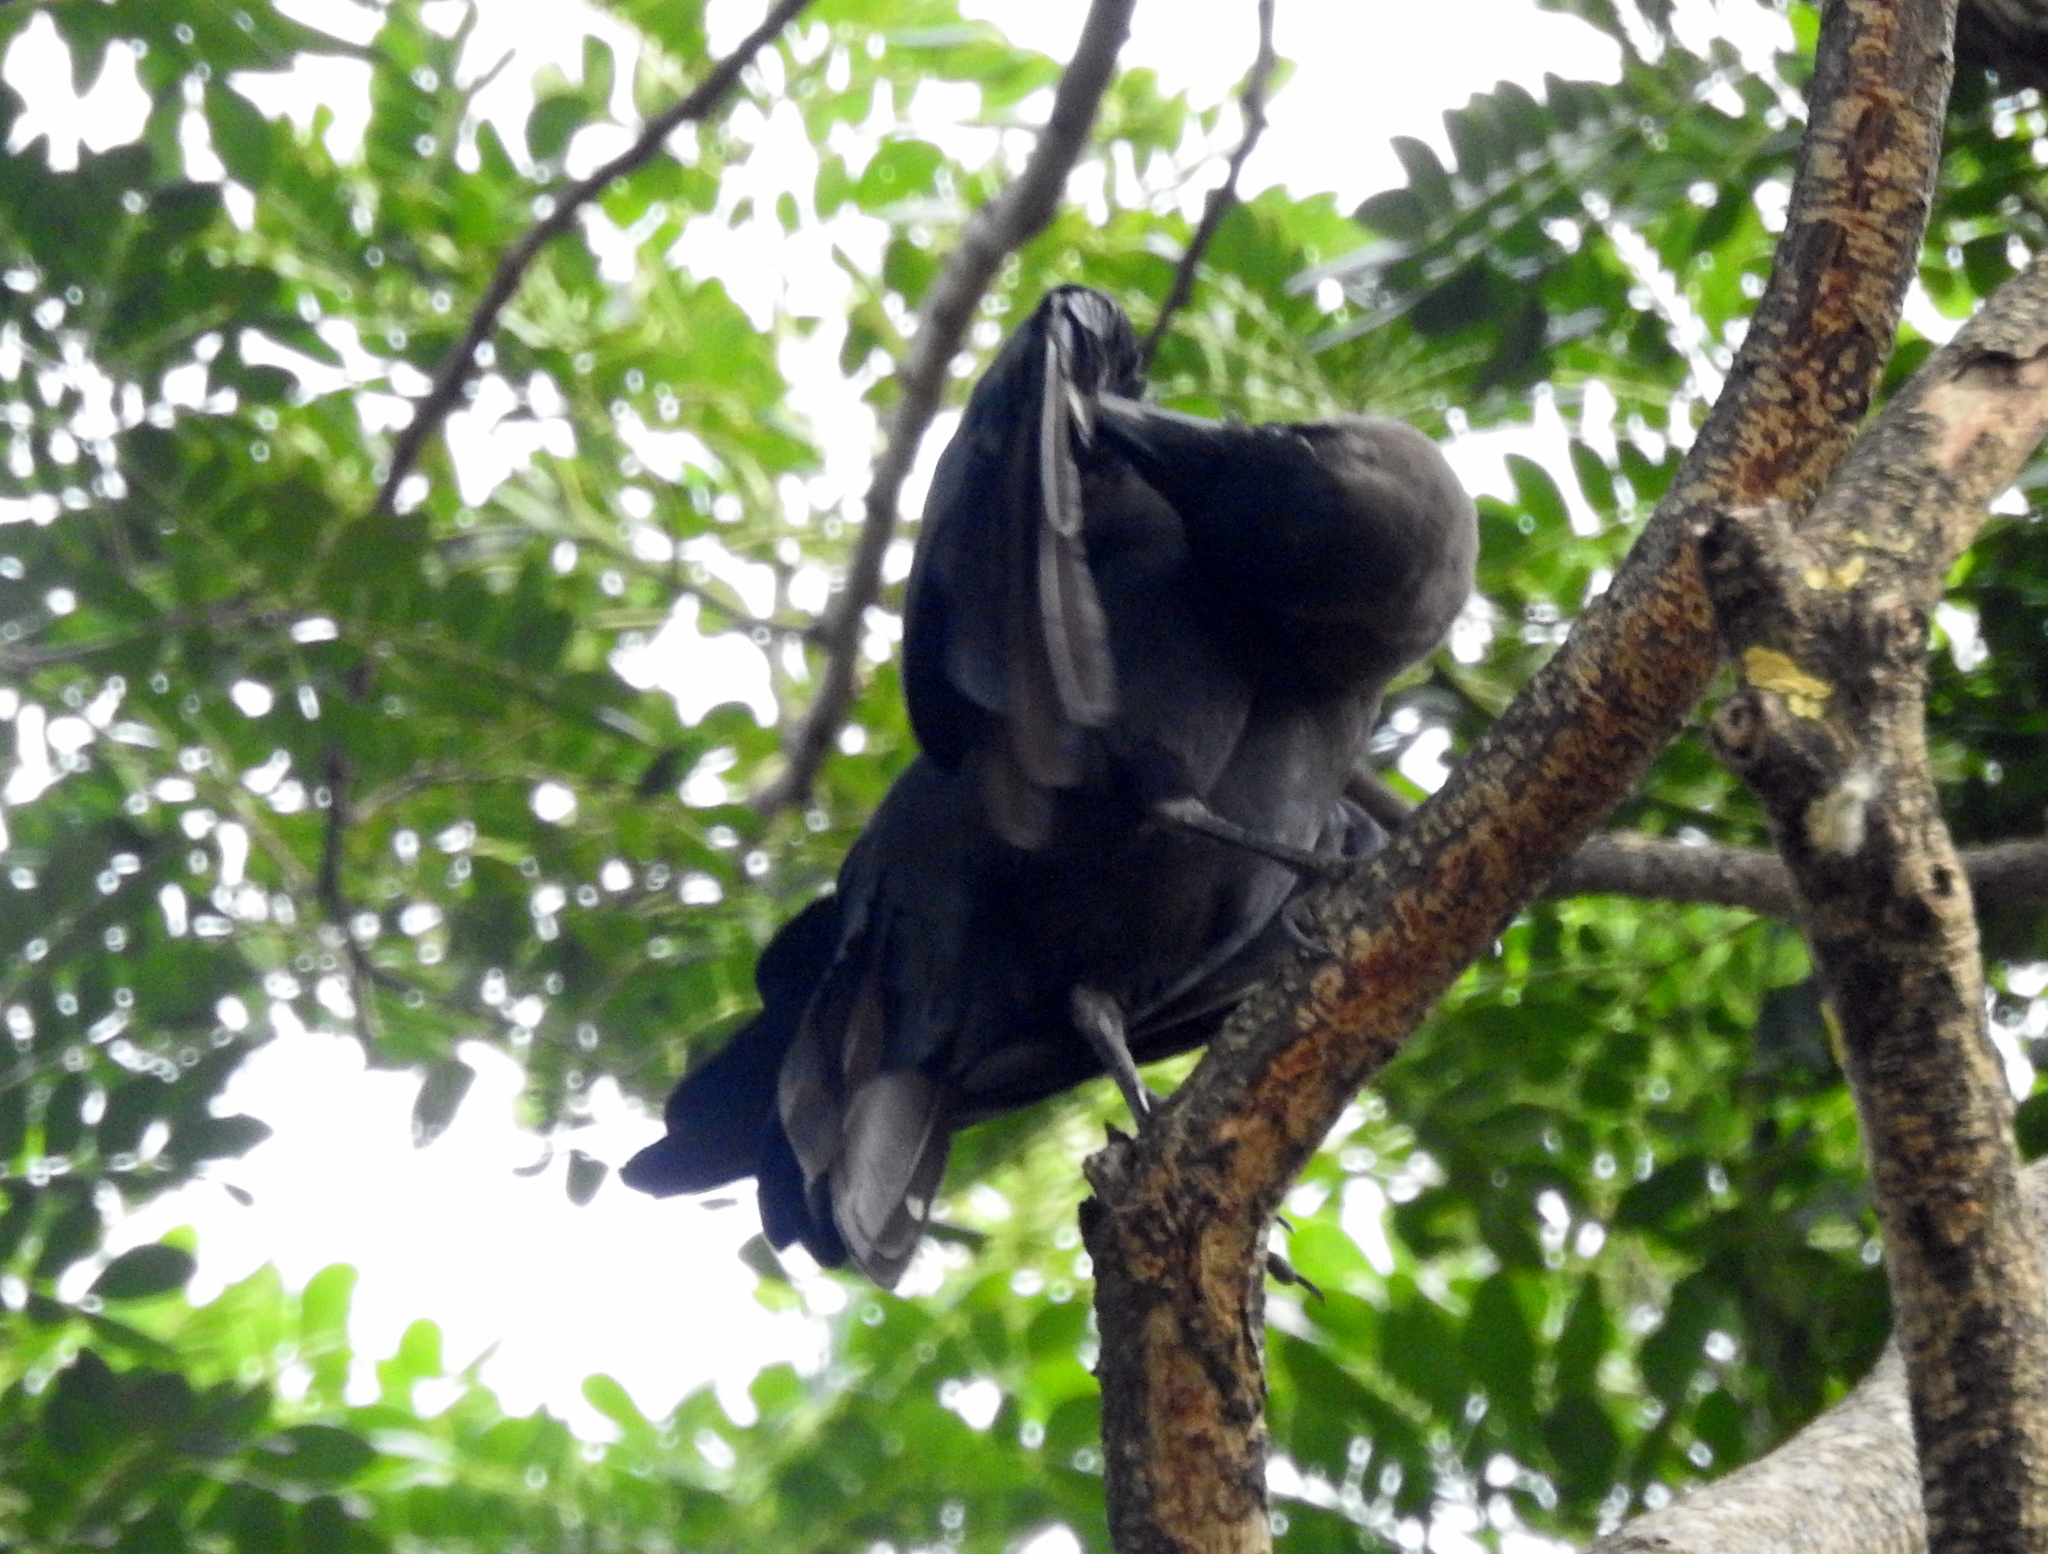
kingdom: Animalia
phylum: Chordata
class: Aves
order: Passeriformes
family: Corvidae
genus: Corvus
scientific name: Corvus splendens
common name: House crow
